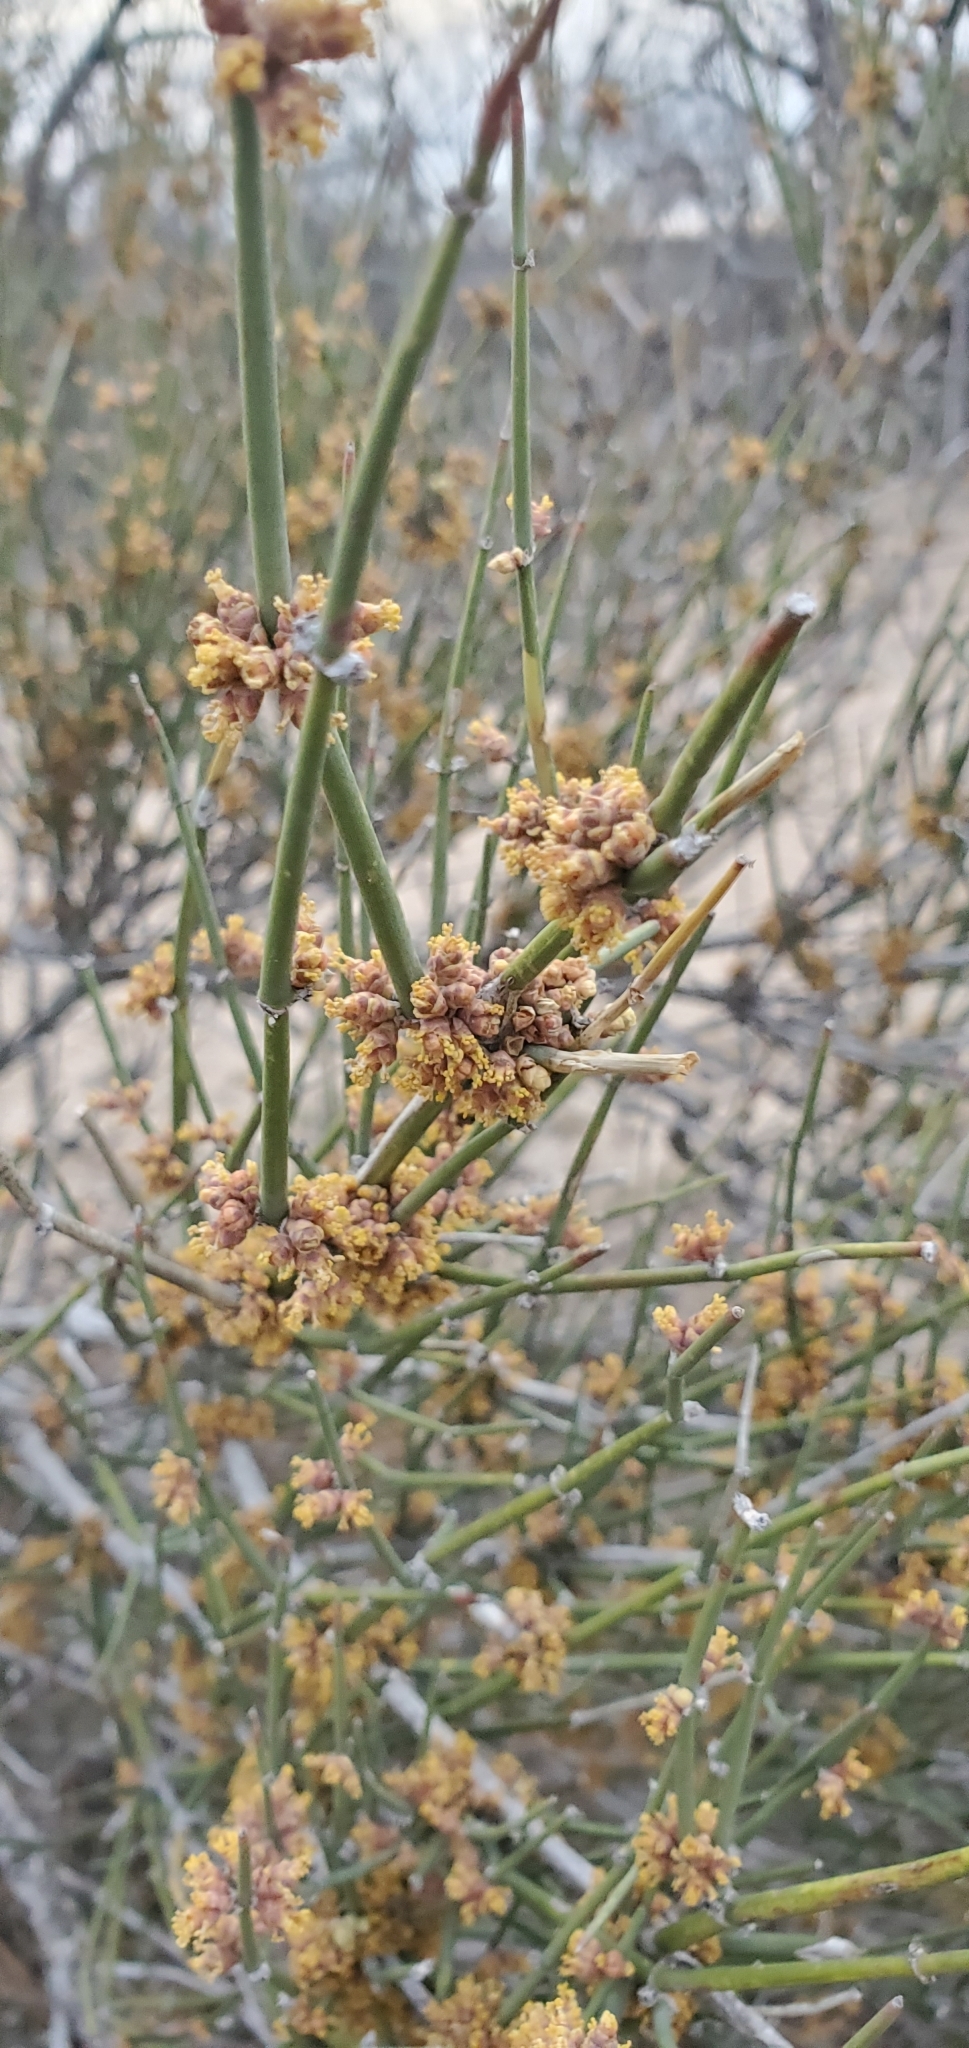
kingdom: Plantae
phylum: Tracheophyta
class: Gnetopsida
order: Ephedrales
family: Ephedraceae
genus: Ephedra
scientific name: Ephedra antisyphilitica
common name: Clipweed
